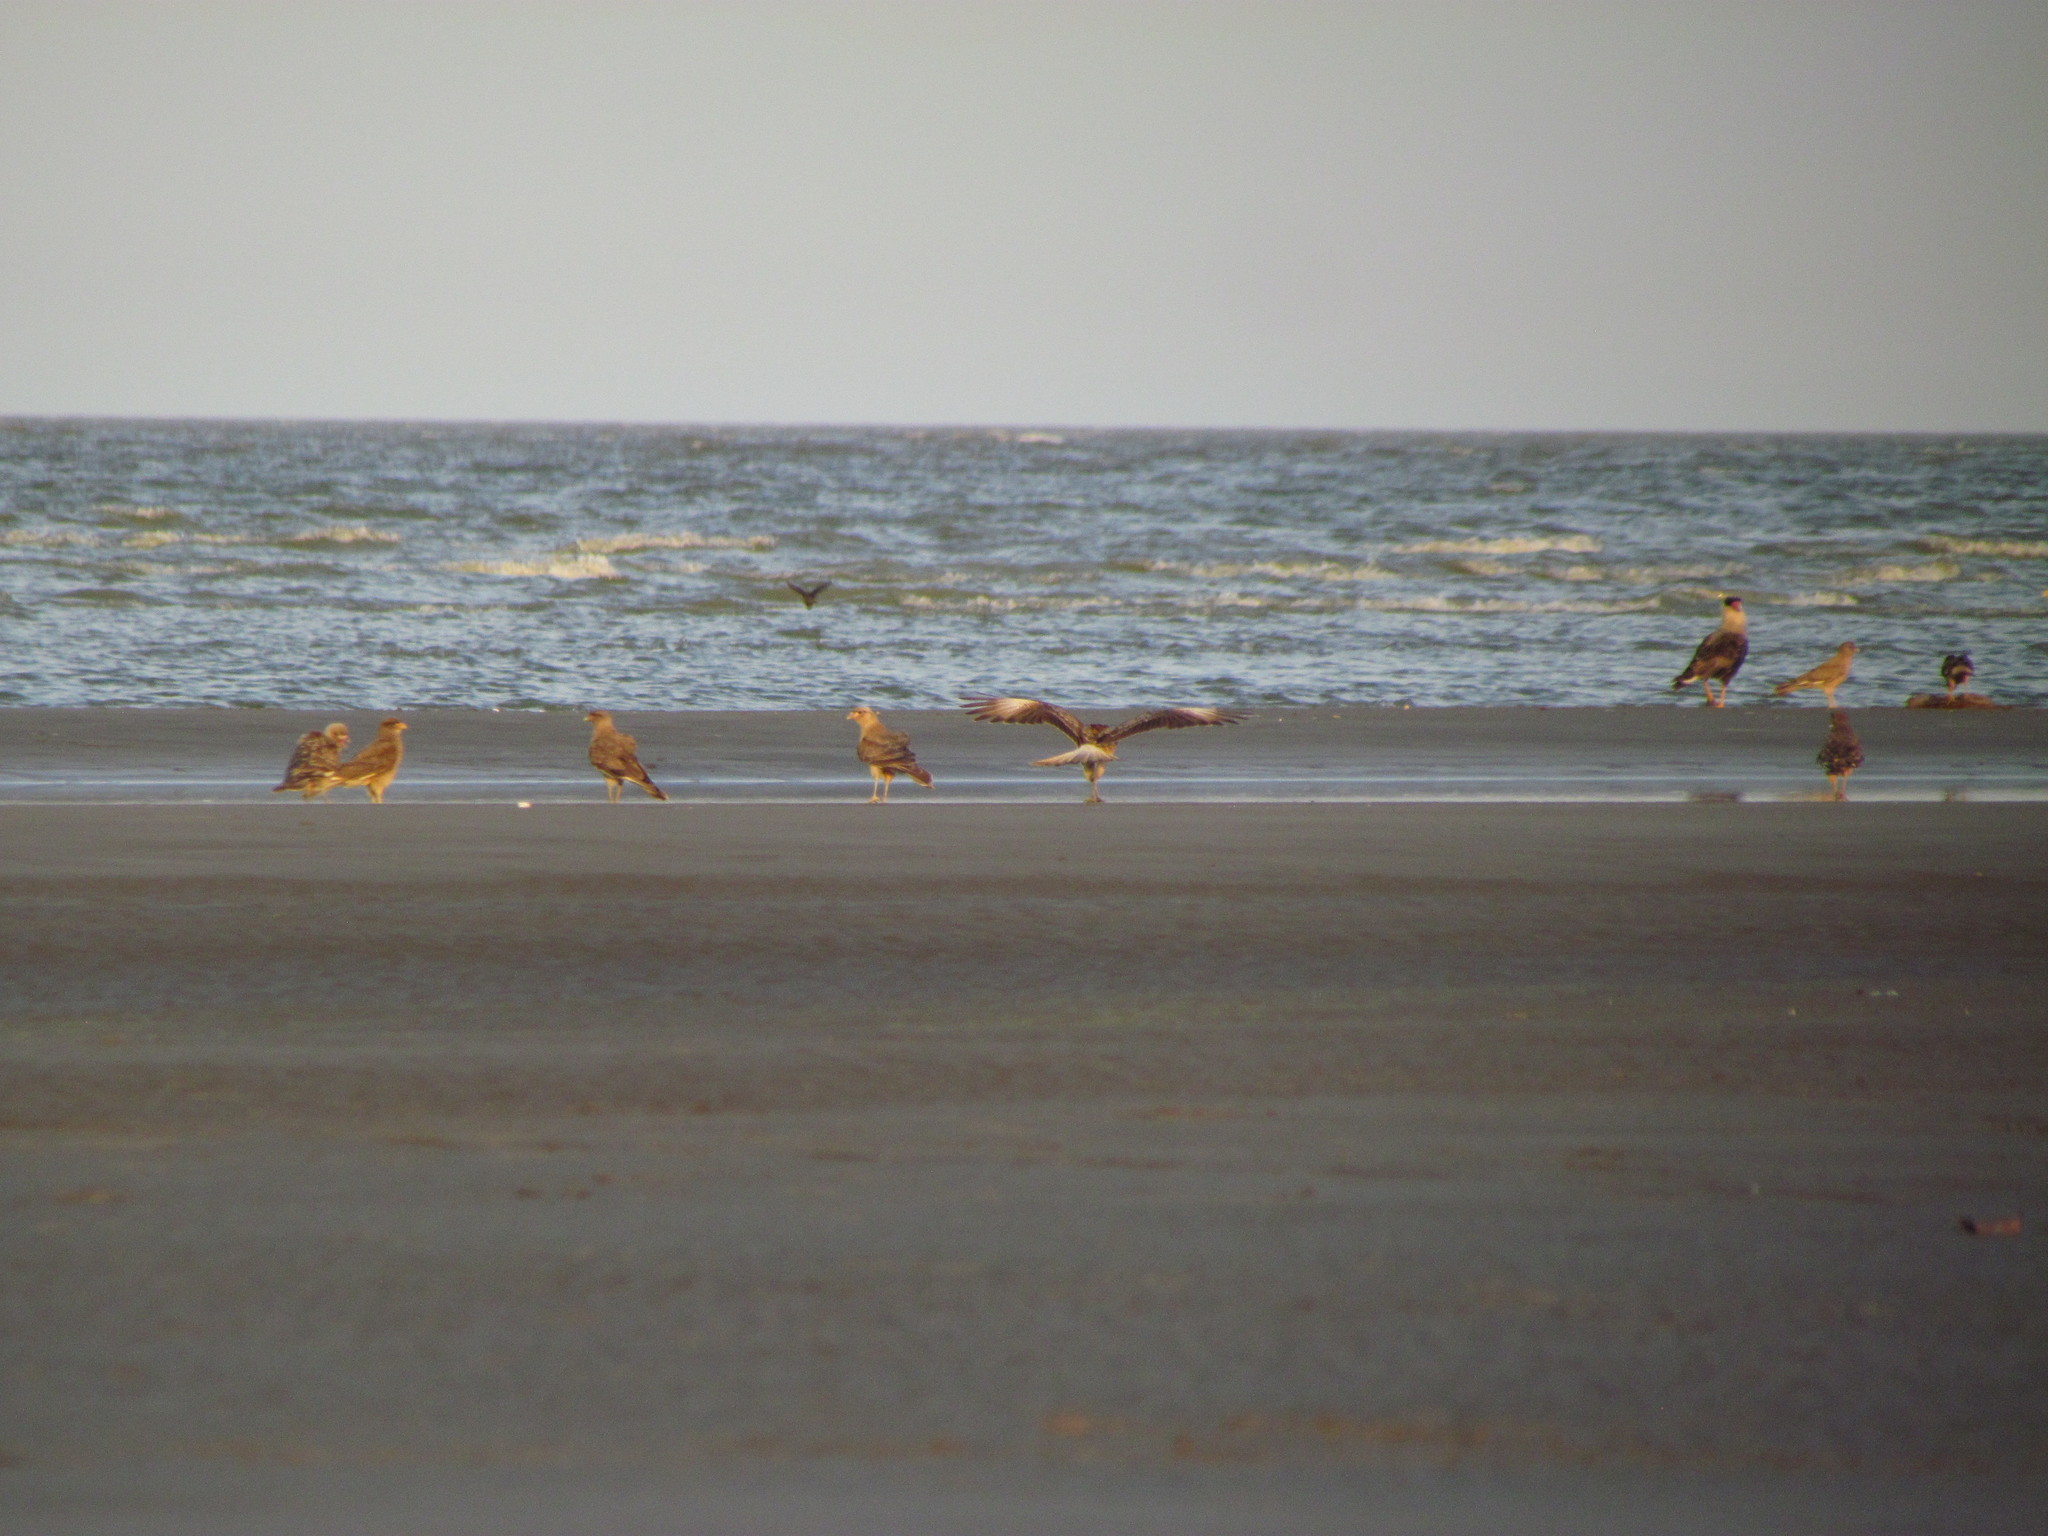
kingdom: Animalia
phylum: Chordata
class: Aves
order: Falconiformes
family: Falconidae
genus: Daptrius
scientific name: Daptrius
